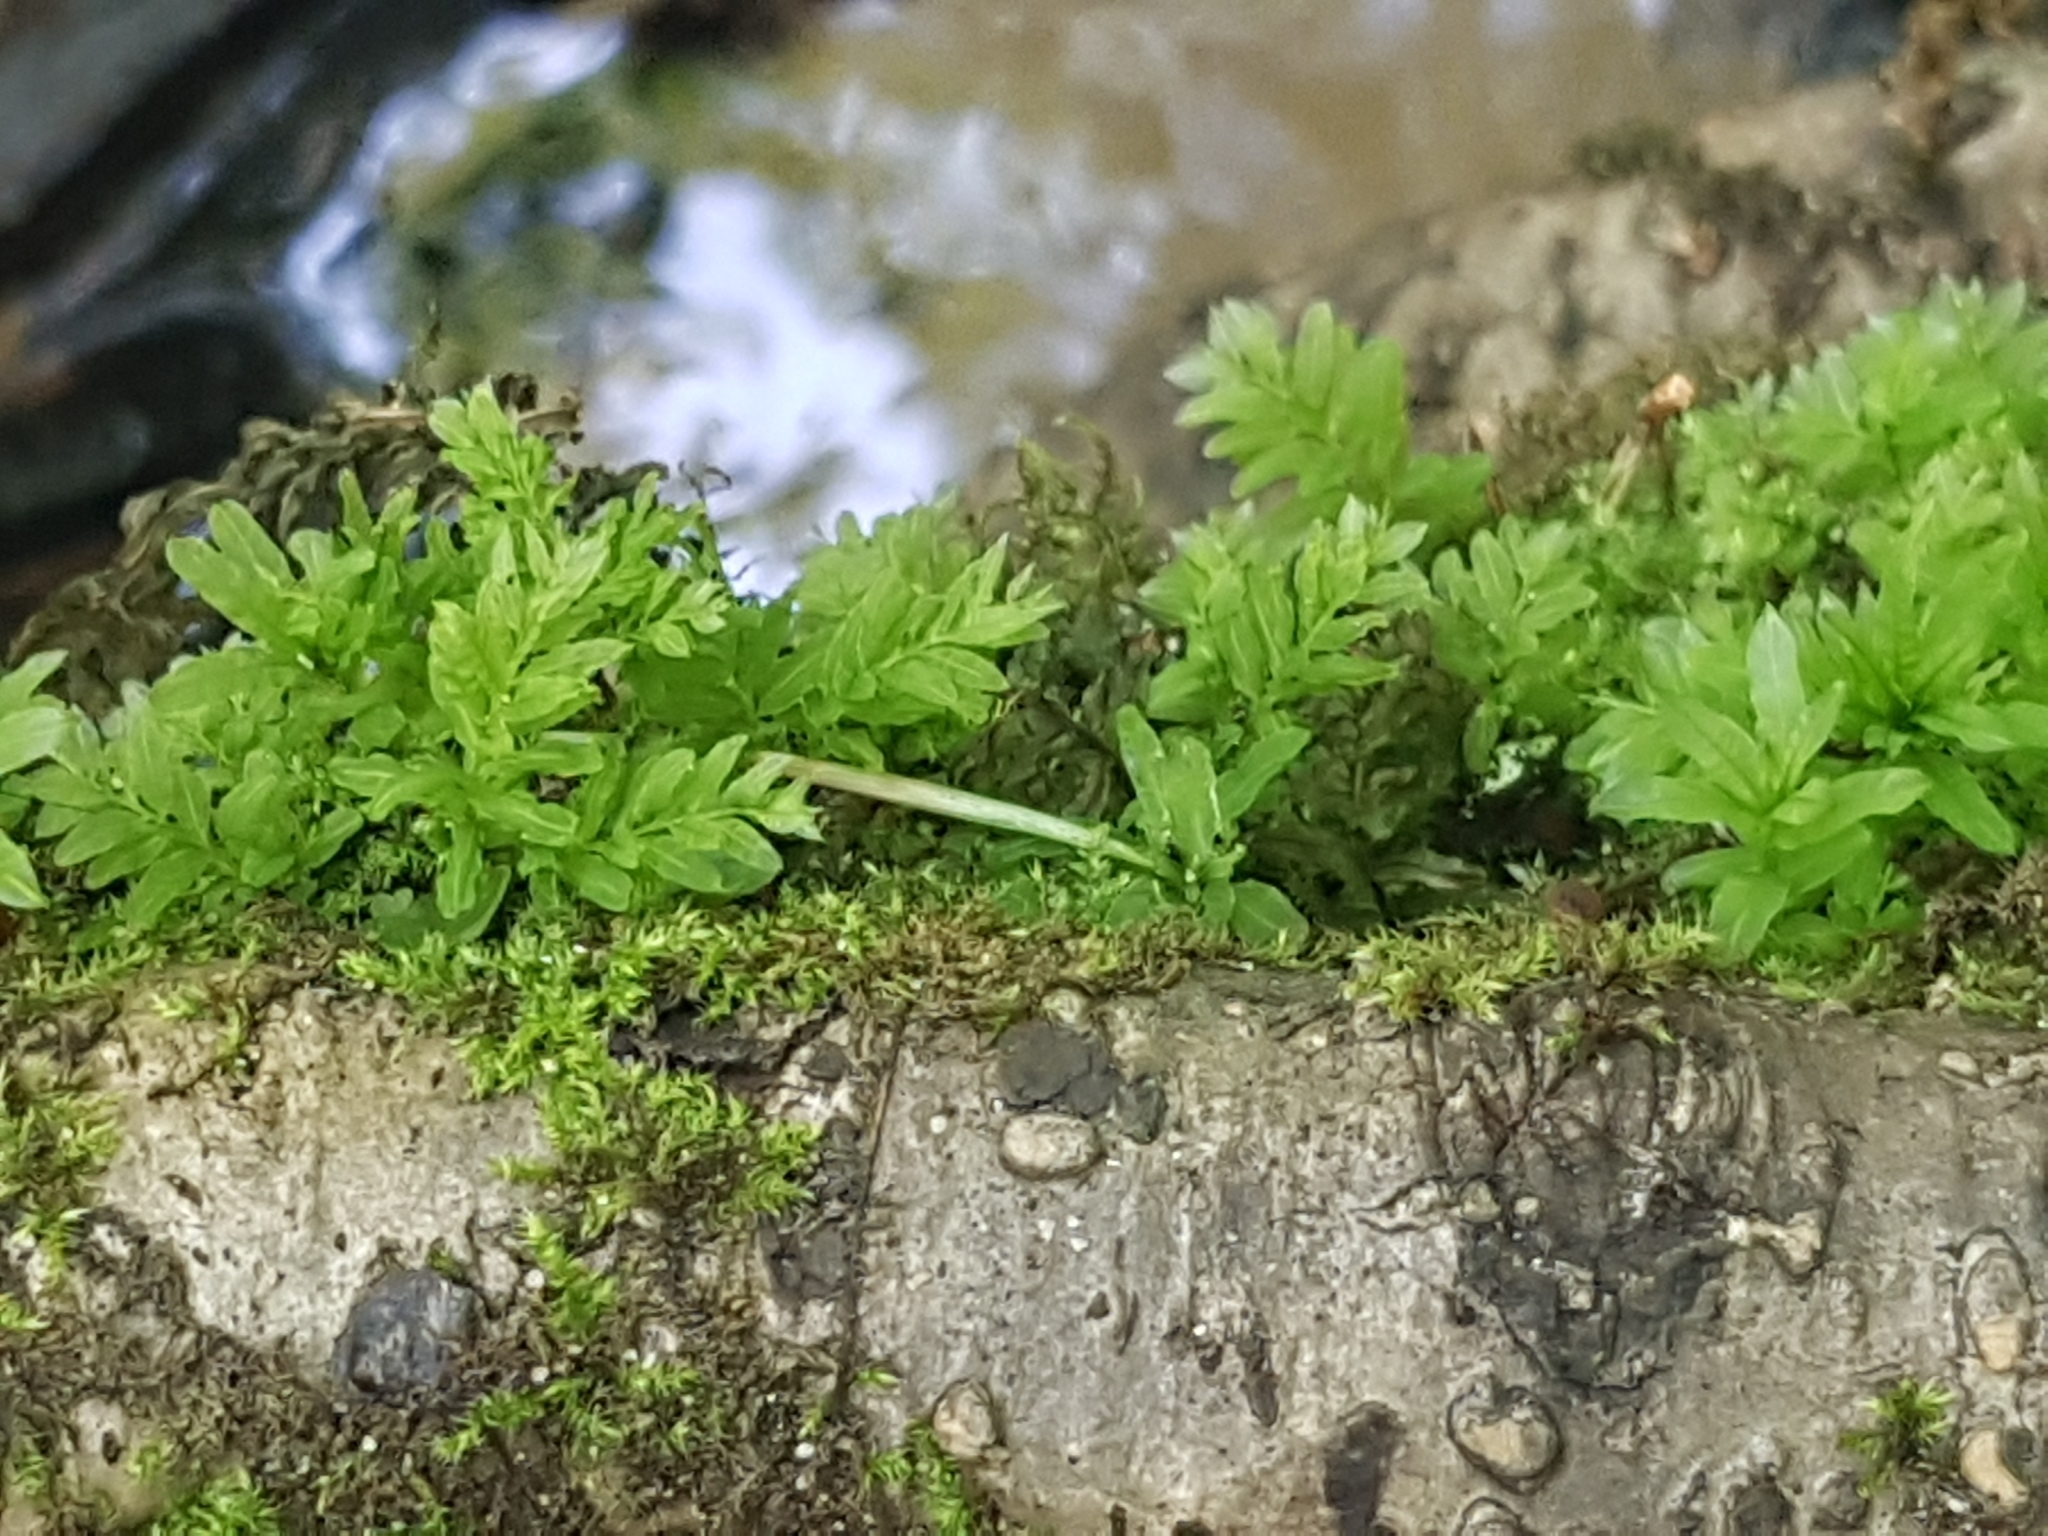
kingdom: Plantae
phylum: Bryophyta
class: Bryopsida
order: Bryales
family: Mniaceae
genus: Plagiomnium
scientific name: Plagiomnium undulatum
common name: Hart's-tongue thyme-moss
